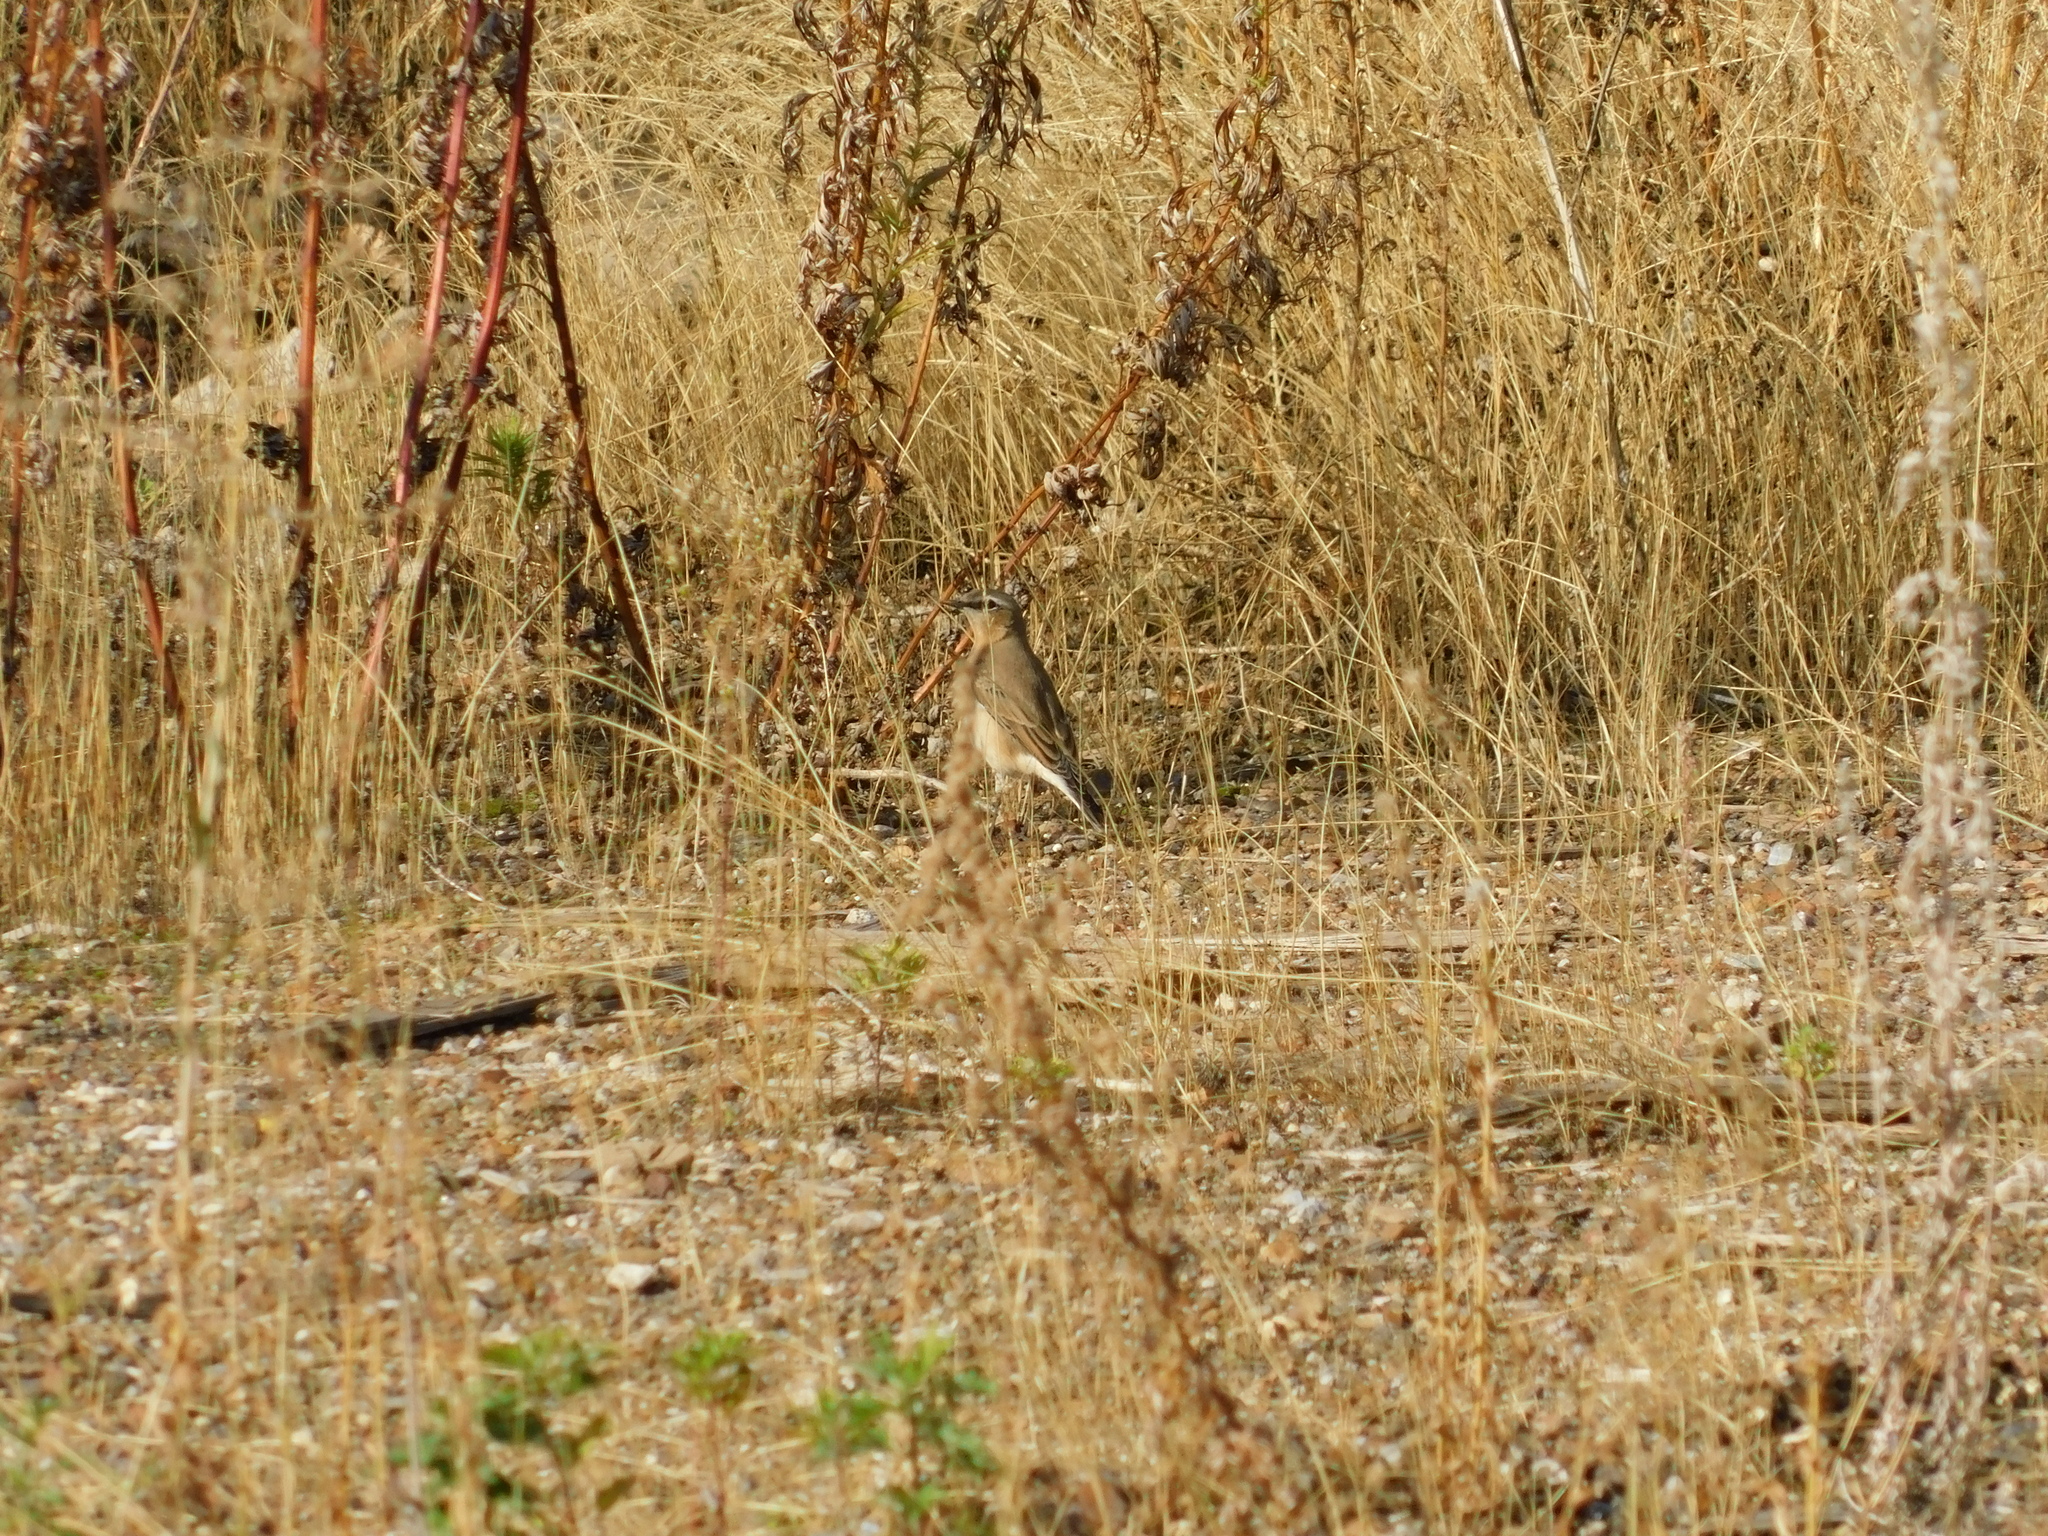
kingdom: Animalia
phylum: Chordata
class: Aves
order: Passeriformes
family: Muscicapidae
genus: Oenanthe
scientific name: Oenanthe oenanthe
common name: Northern wheatear
